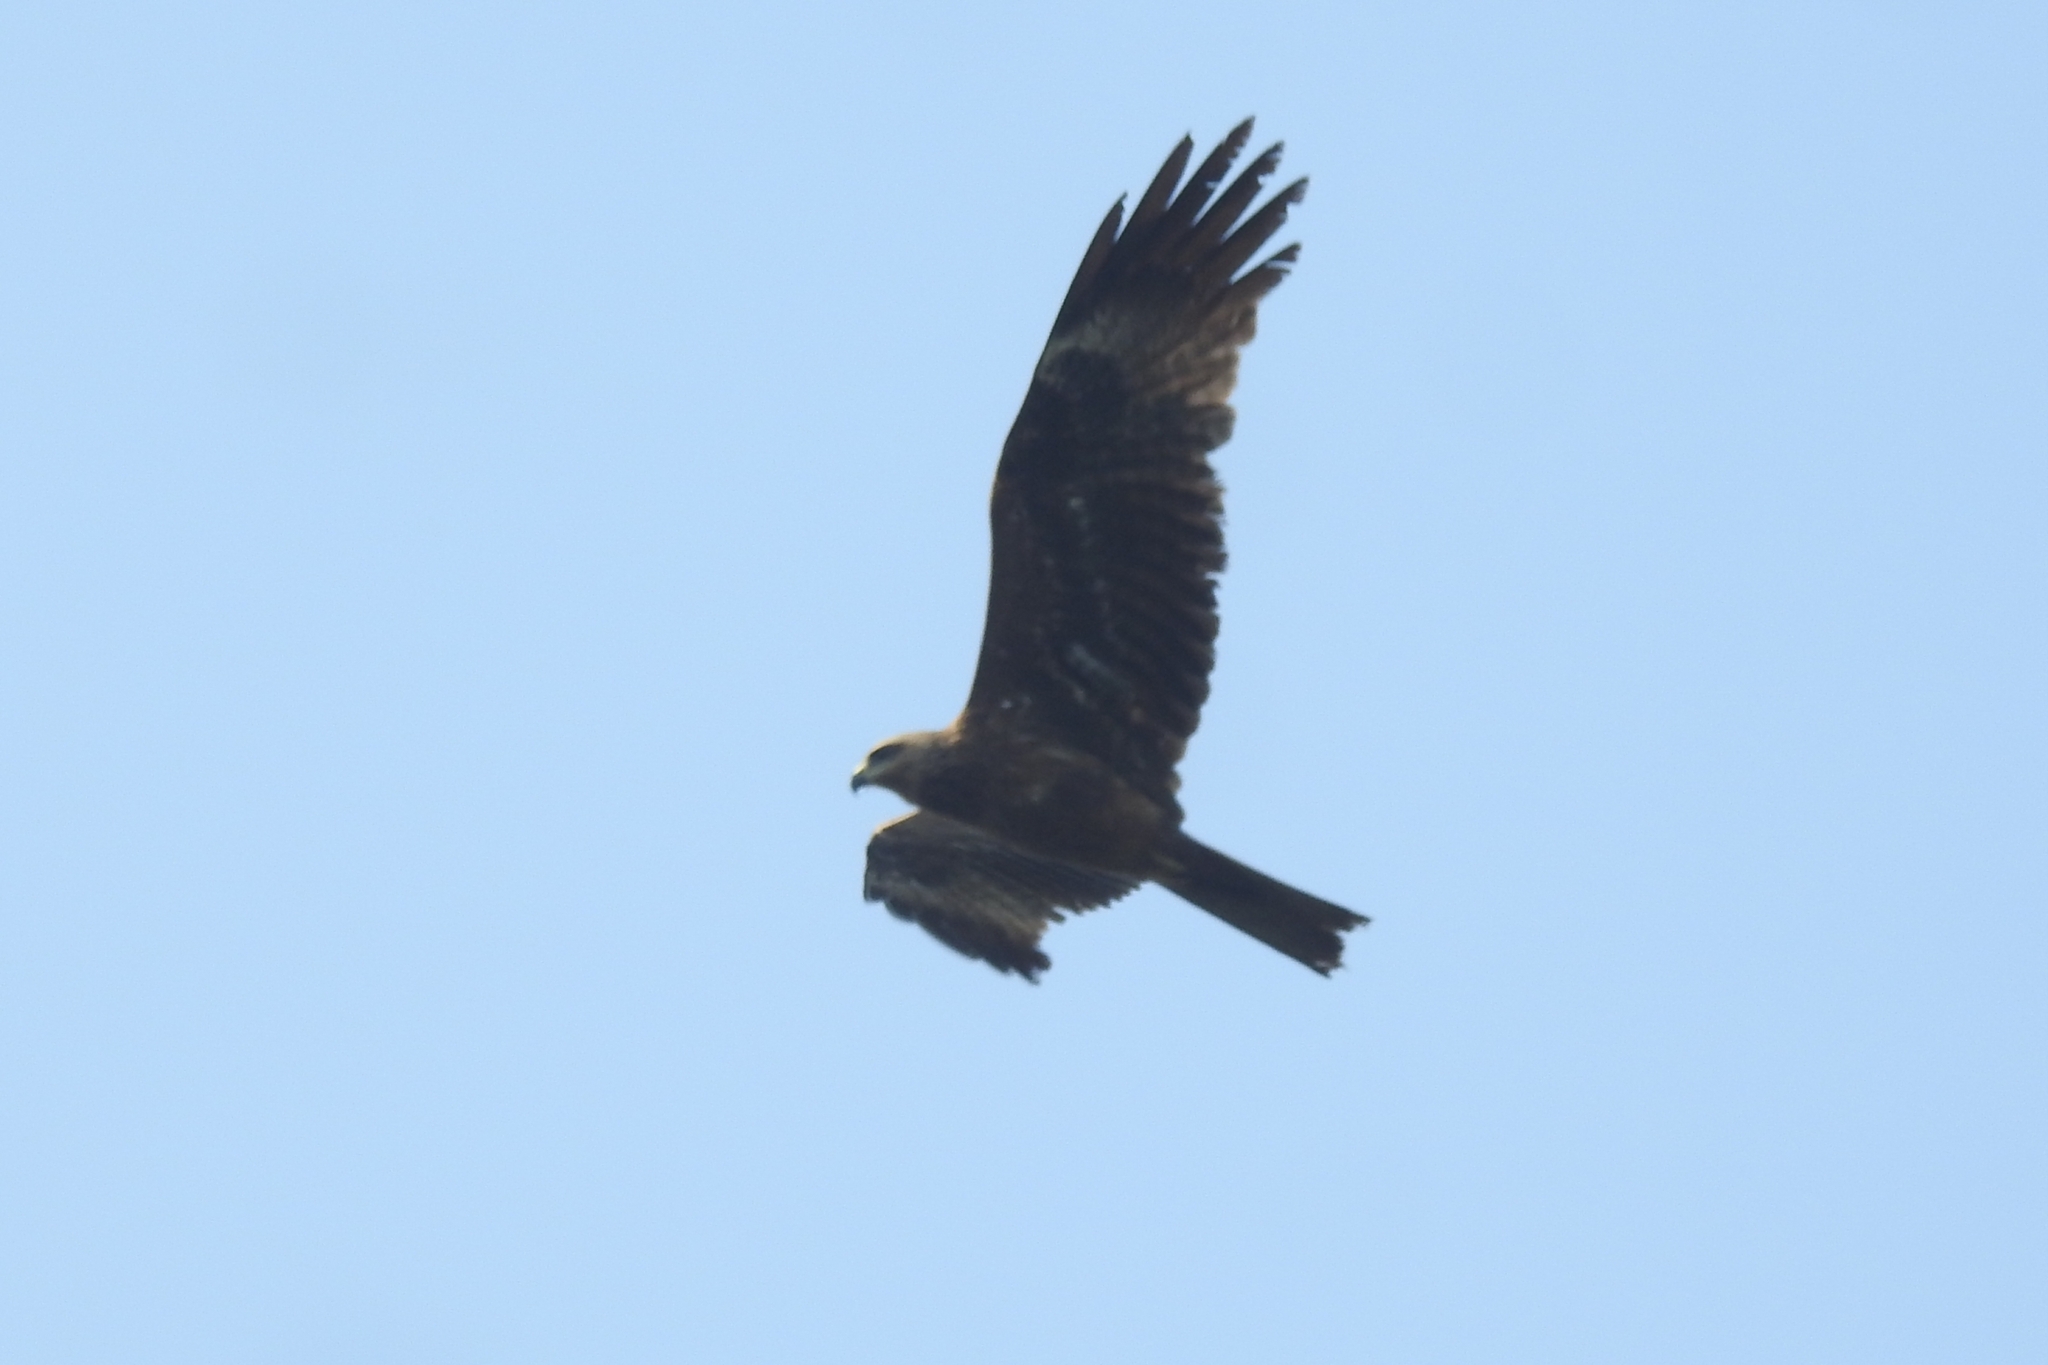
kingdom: Animalia
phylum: Chordata
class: Aves
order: Accipitriformes
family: Accipitridae
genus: Milvus
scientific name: Milvus migrans
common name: Black kite
